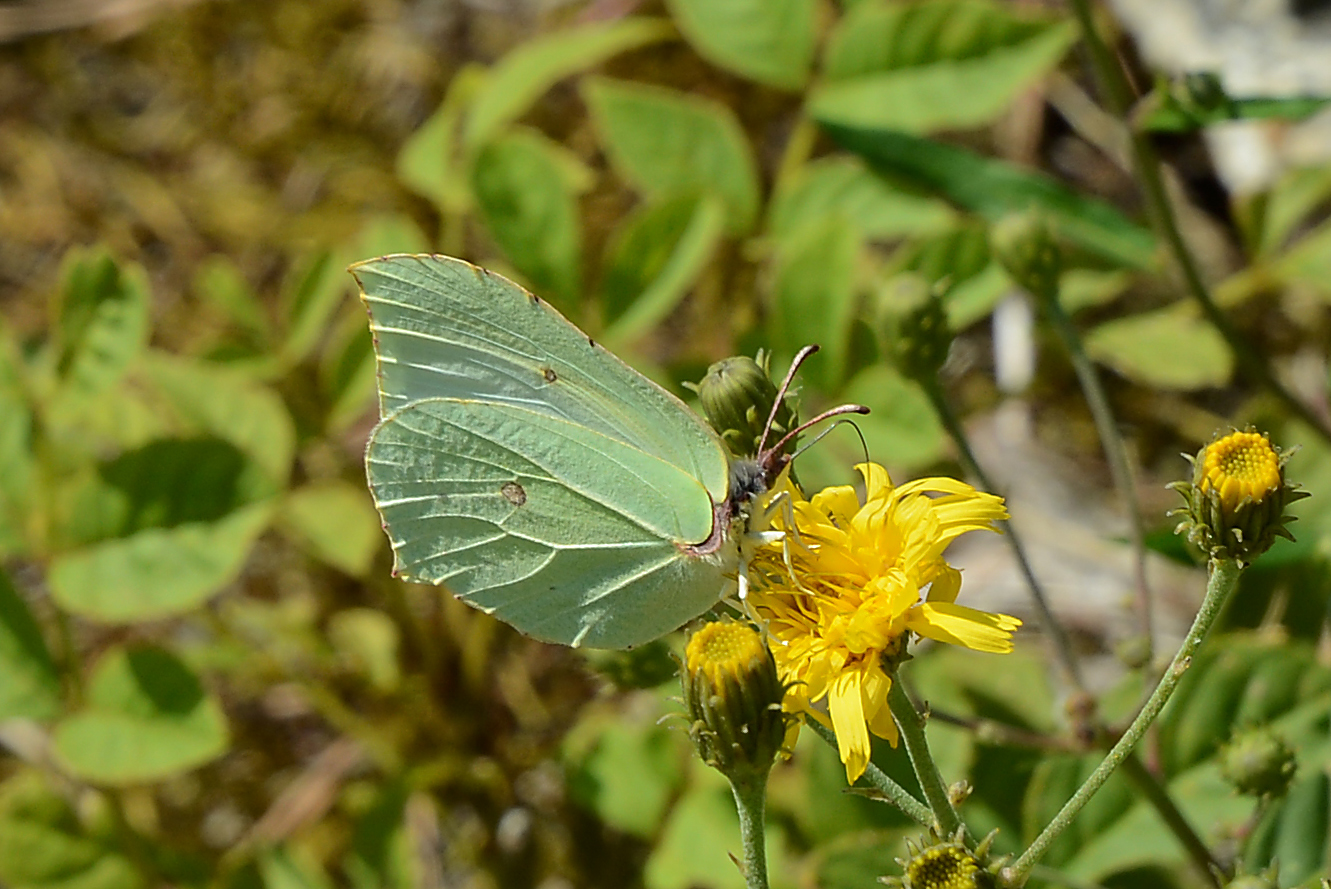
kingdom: Animalia
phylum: Arthropoda
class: Insecta
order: Lepidoptera
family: Pieridae
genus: Gonepteryx
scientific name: Gonepteryx rhamni
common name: Brimstone
